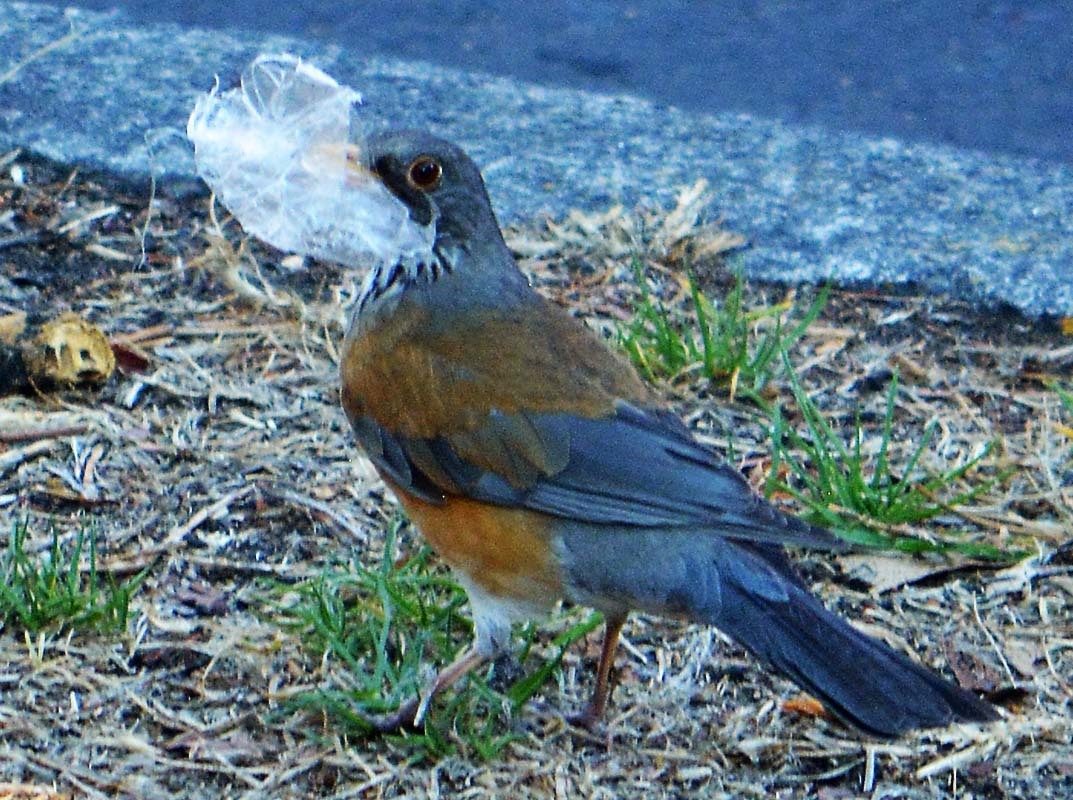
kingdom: Animalia
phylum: Chordata
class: Aves
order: Passeriformes
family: Turdidae
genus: Turdus
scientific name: Turdus rufopalliatus
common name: Rufous-backed robin
